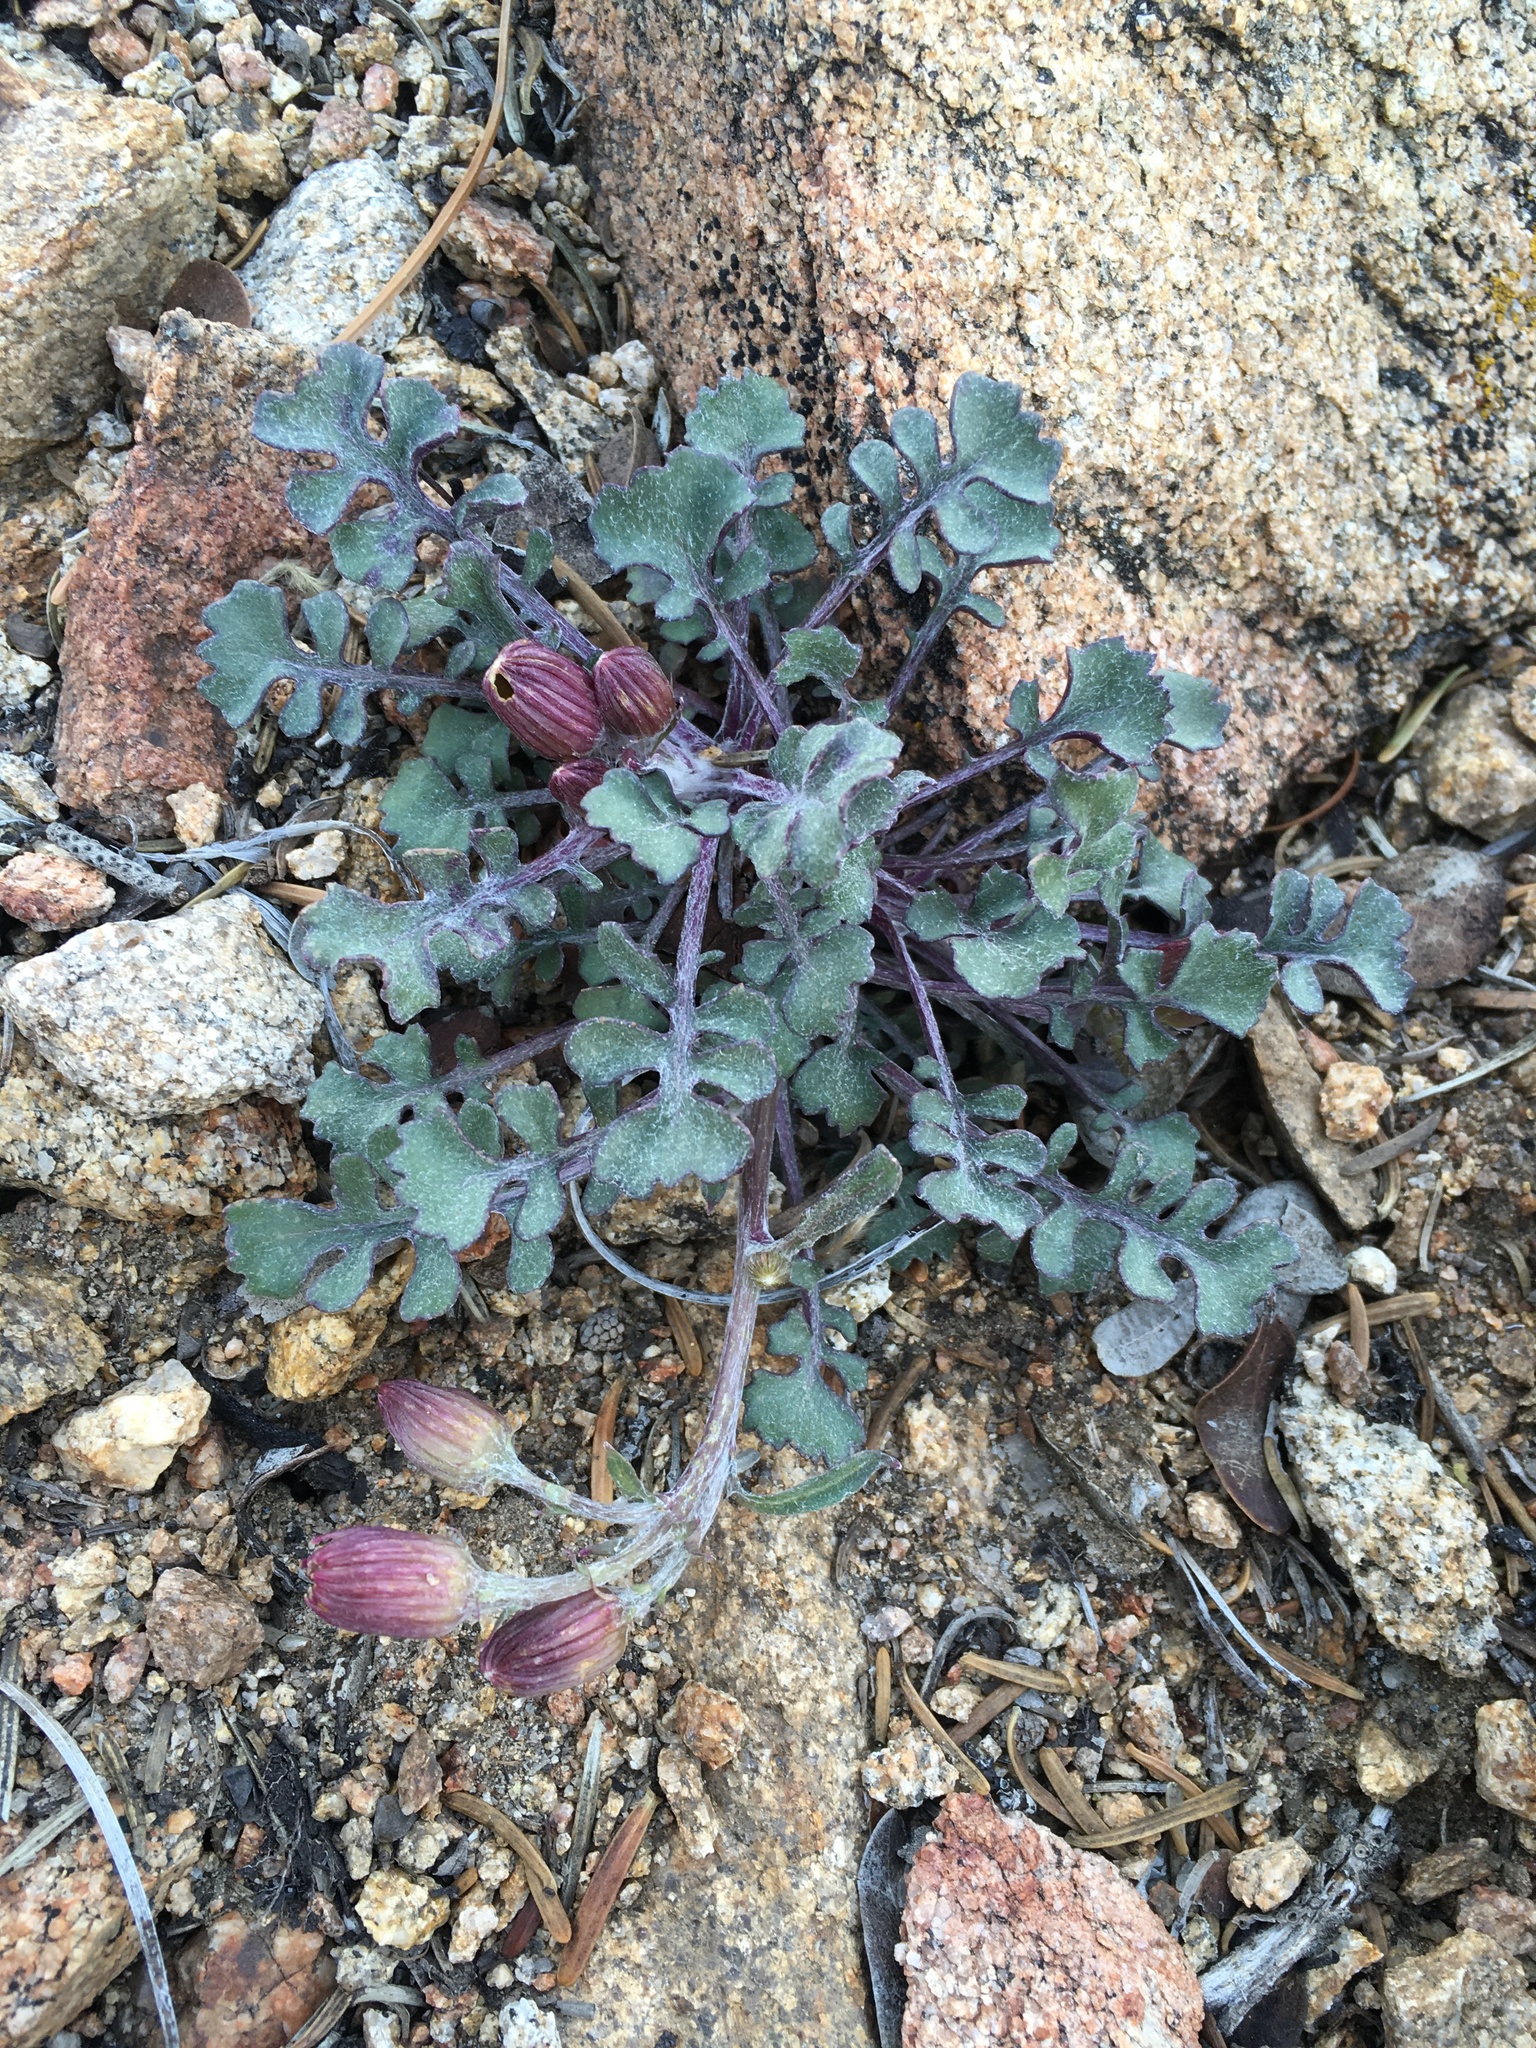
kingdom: Plantae
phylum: Tracheophyta
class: Magnoliopsida
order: Asterales
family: Asteraceae
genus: Packera
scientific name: Packera ionophylla
